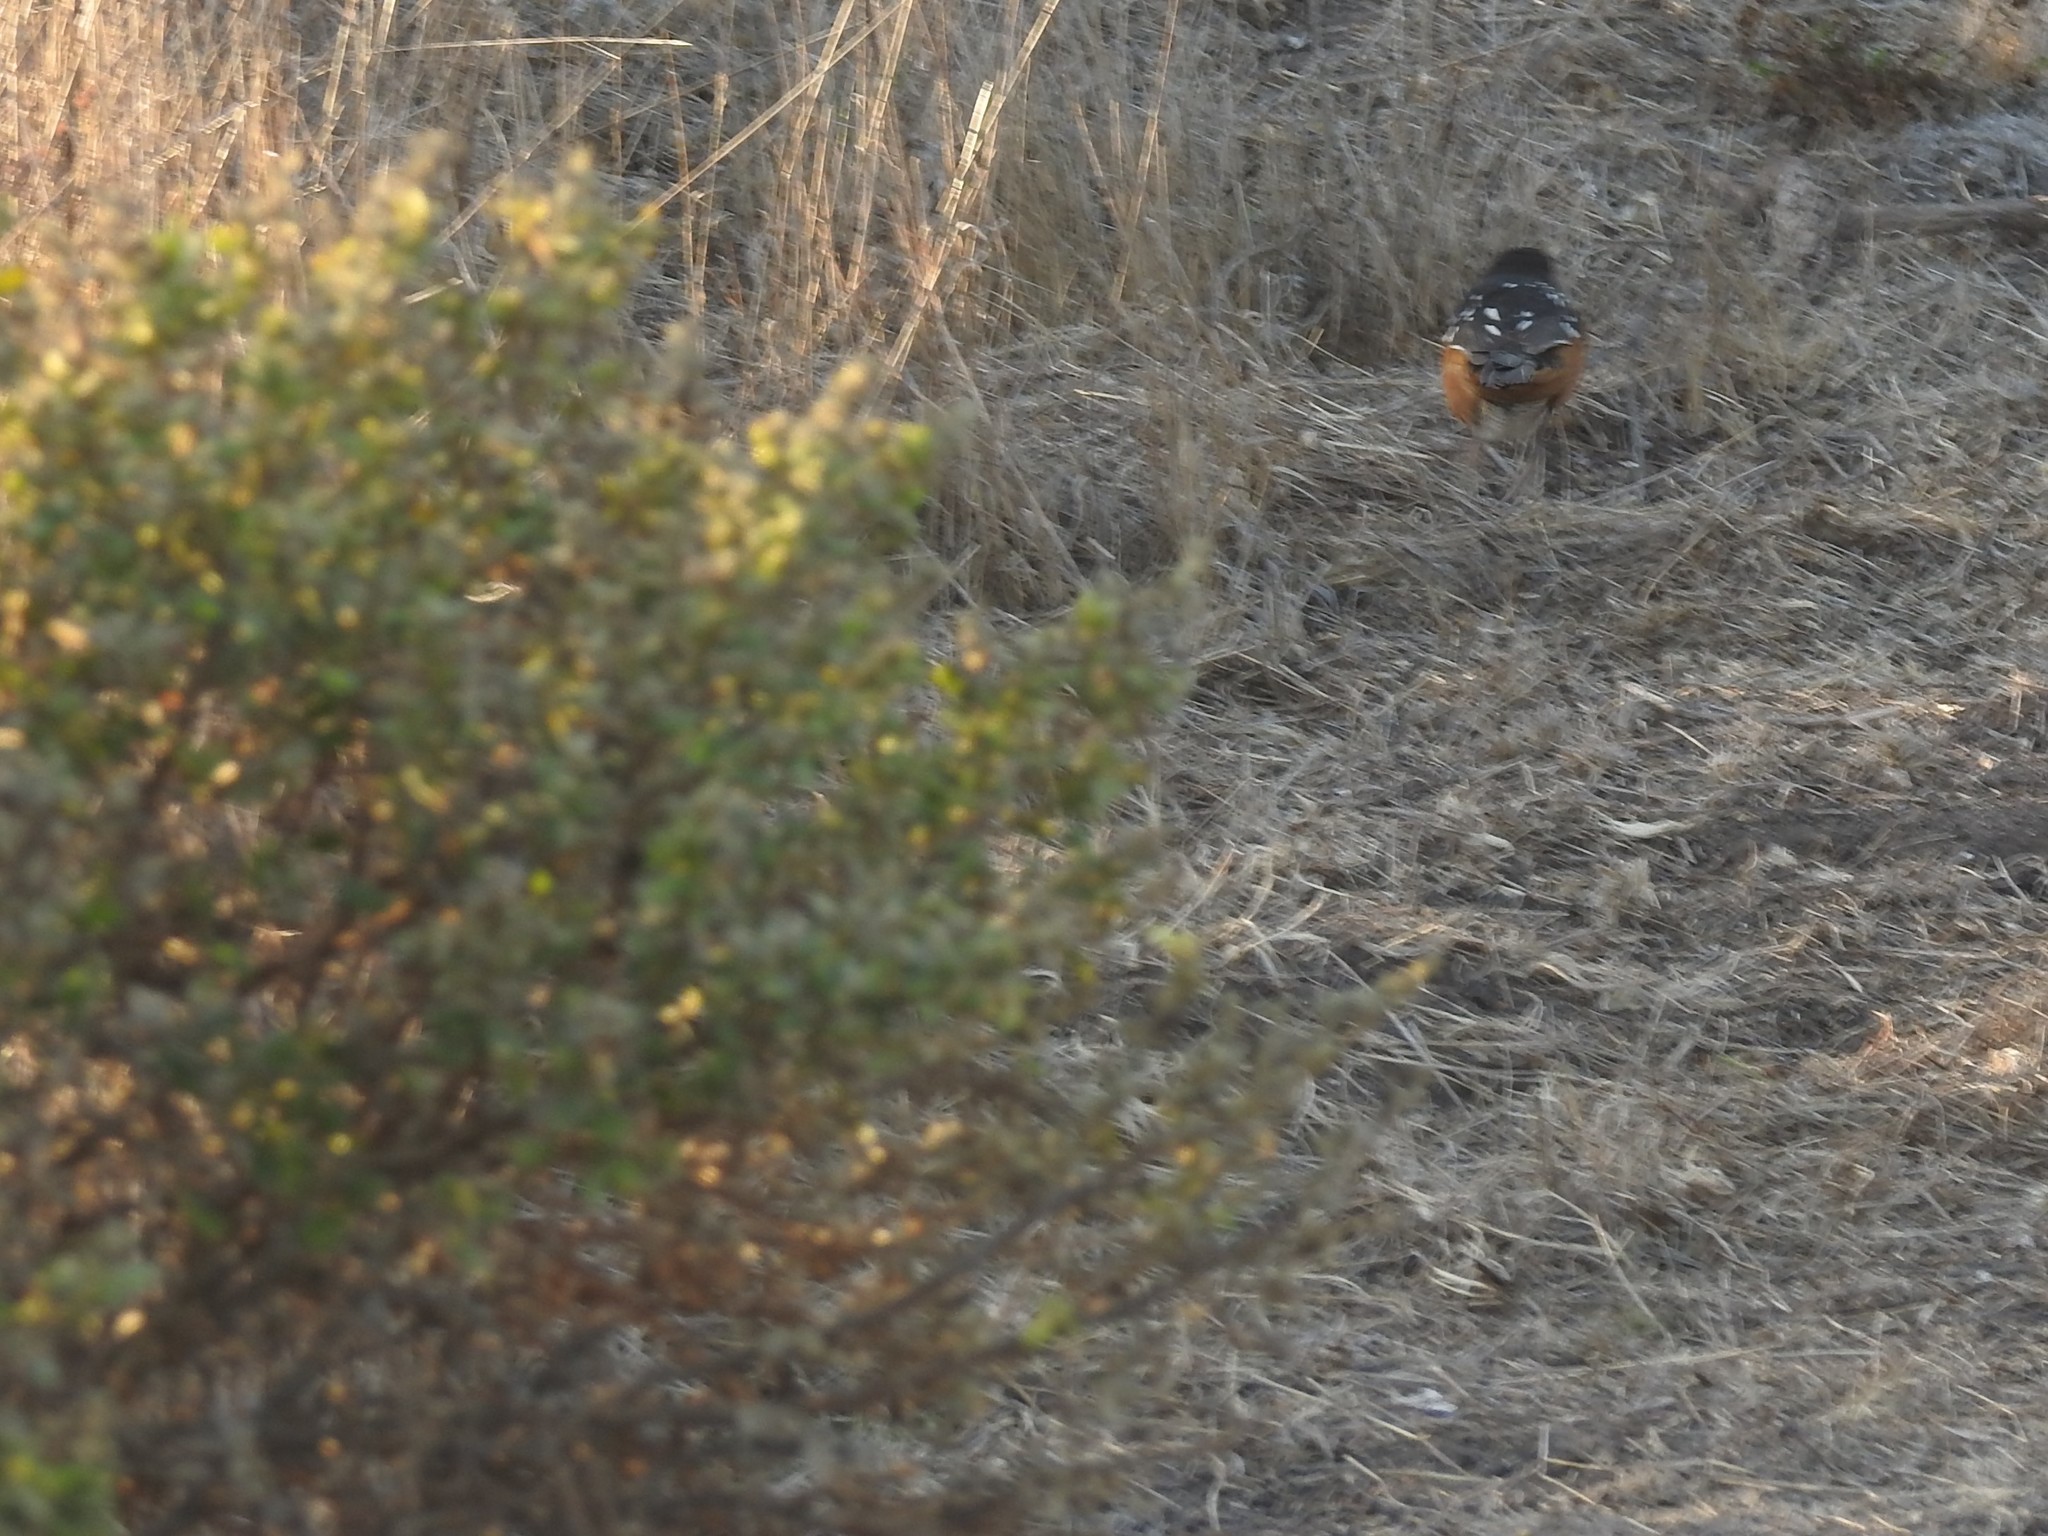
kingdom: Animalia
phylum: Chordata
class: Aves
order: Passeriformes
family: Passerellidae
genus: Pipilo
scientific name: Pipilo maculatus
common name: Spotted towhee
